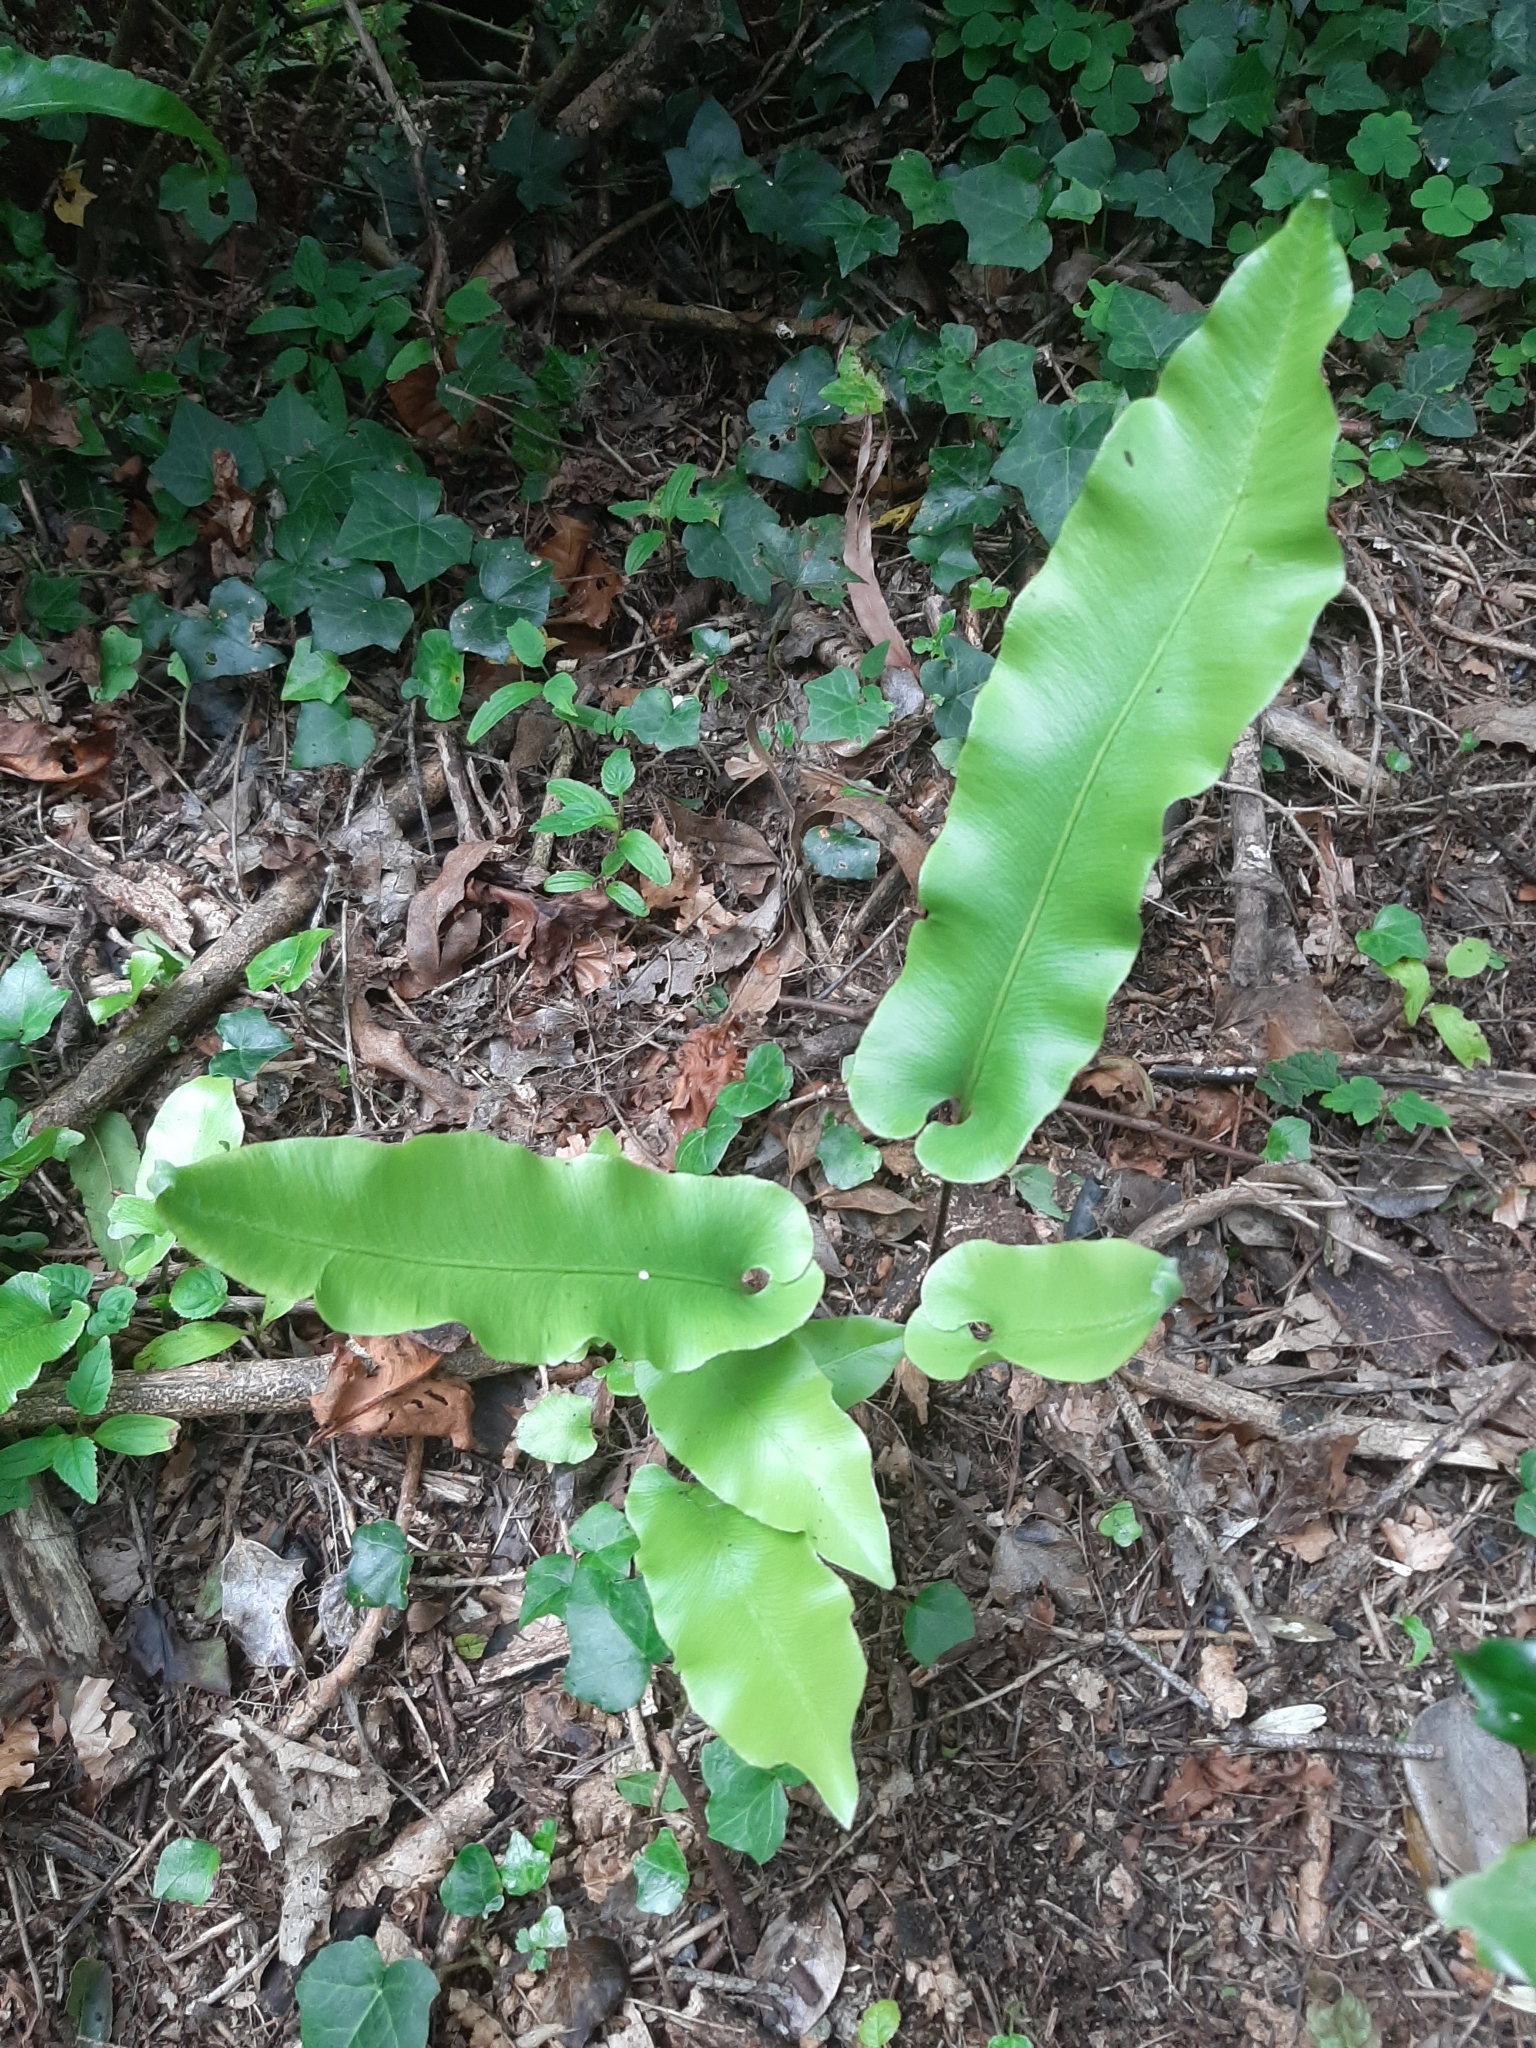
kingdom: Plantae
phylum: Tracheophyta
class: Polypodiopsida
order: Polypodiales
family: Aspleniaceae
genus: Asplenium
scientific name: Asplenium scolopendrium
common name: Hart's-tongue fern
